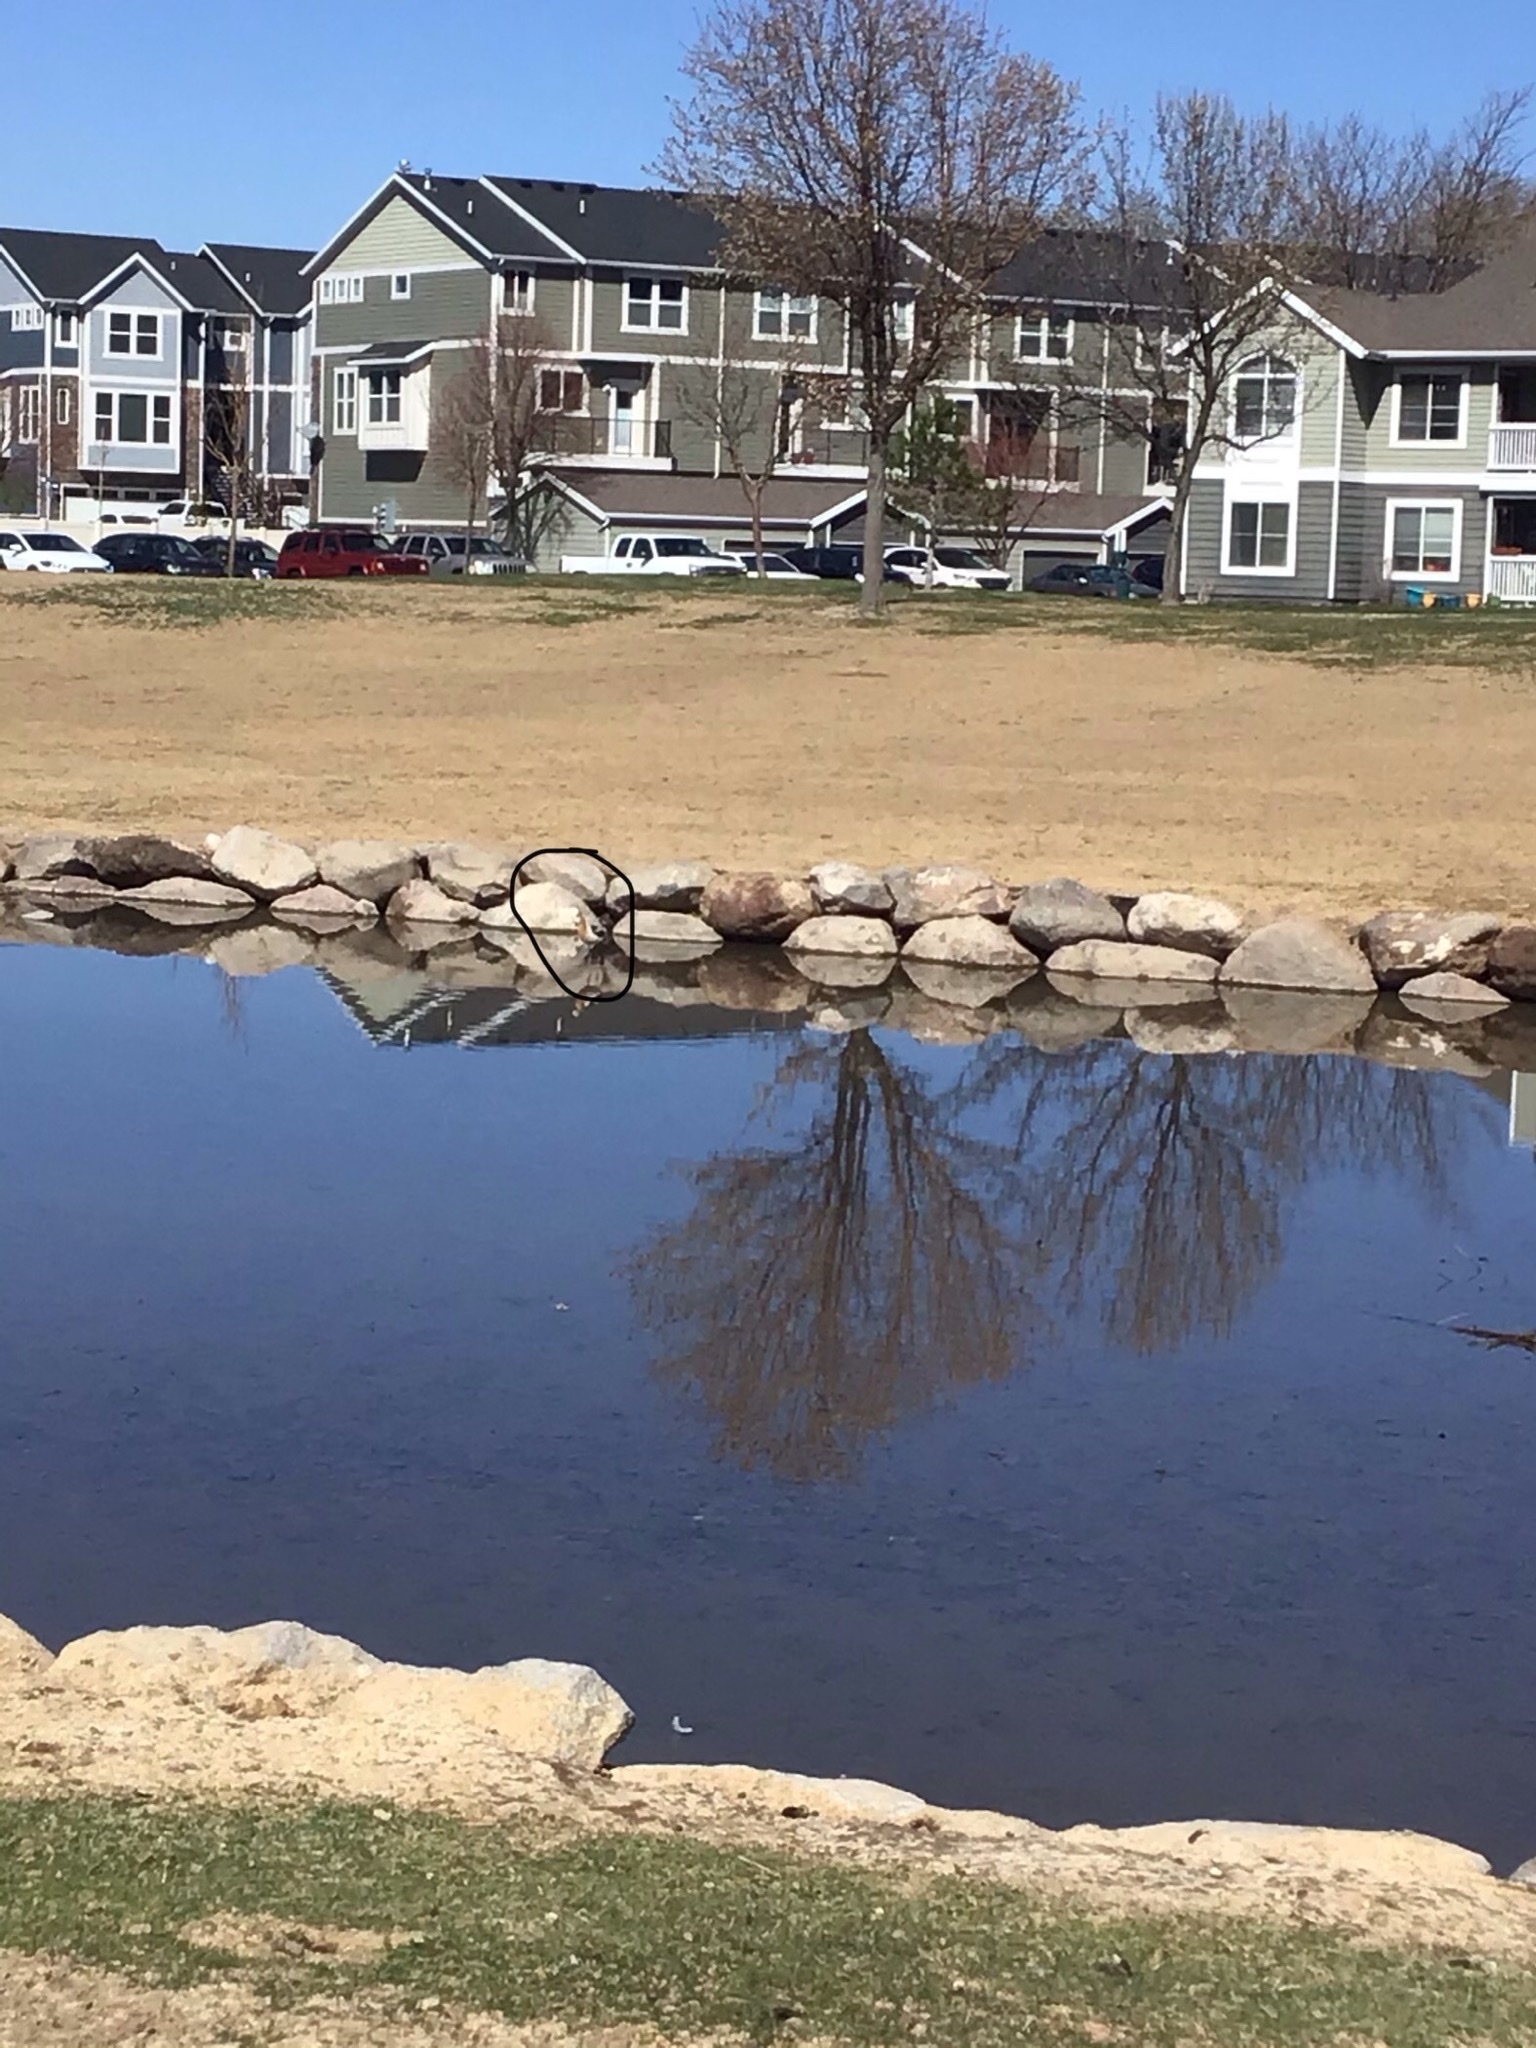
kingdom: Animalia
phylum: Chordata
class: Aves
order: Charadriiformes
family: Recurvirostridae
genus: Recurvirostra
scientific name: Recurvirostra americana
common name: American avocet
